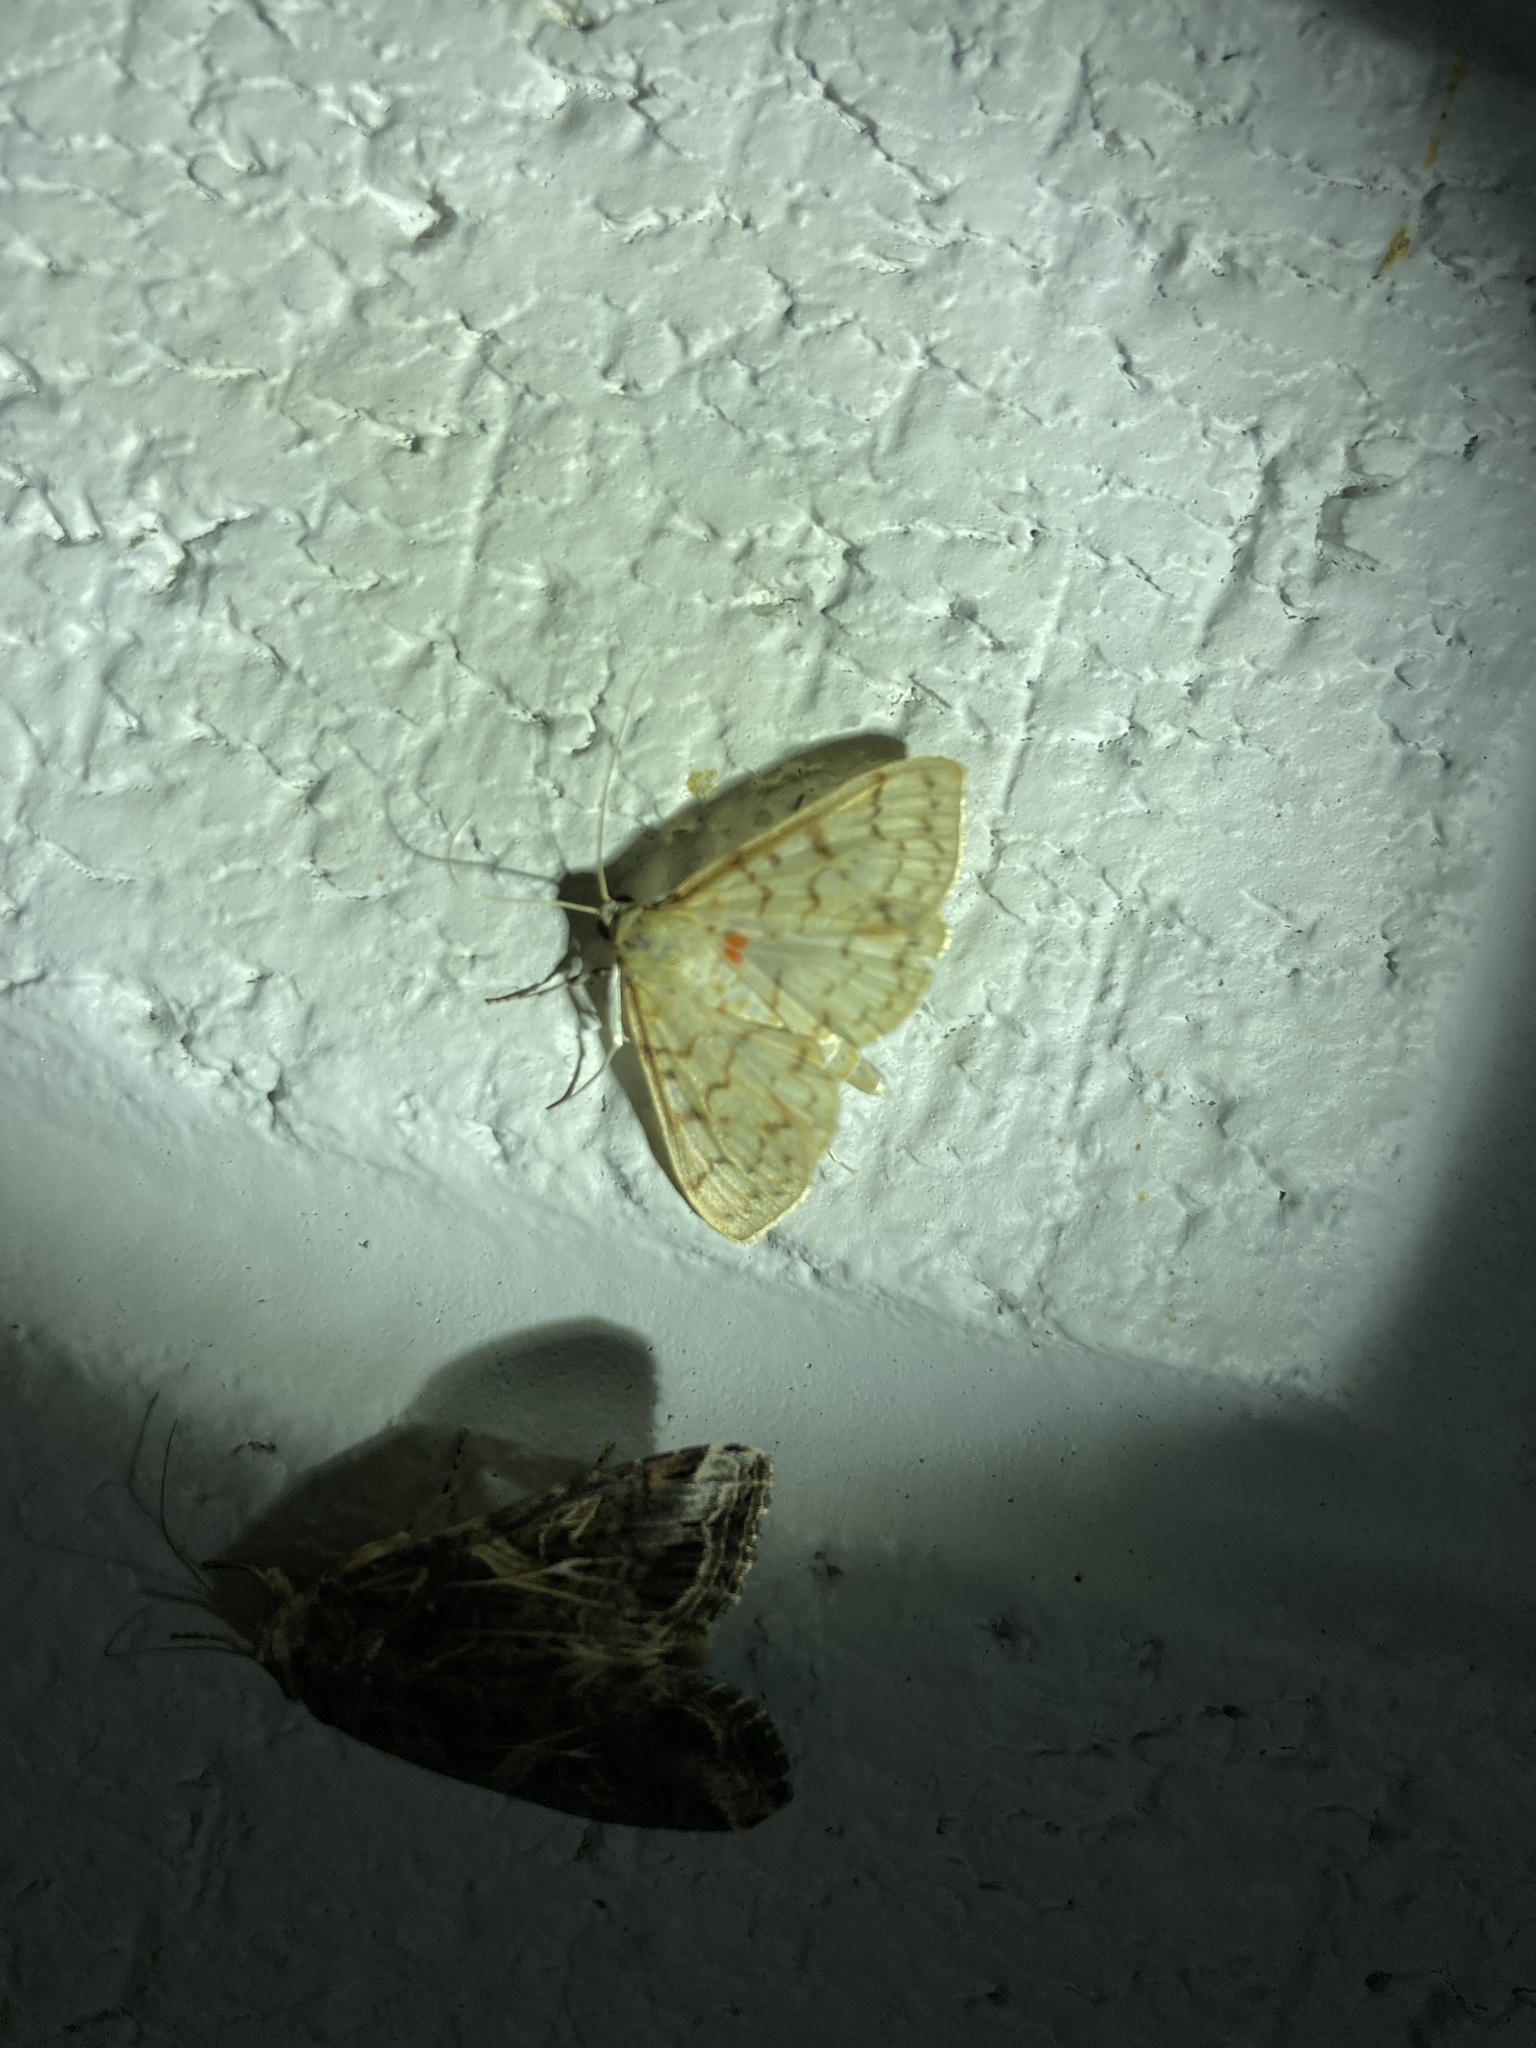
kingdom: Animalia
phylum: Arthropoda
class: Insecta
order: Lepidoptera
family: Crambidae
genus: Polygrammodes
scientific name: Polygrammodes flavidalis
